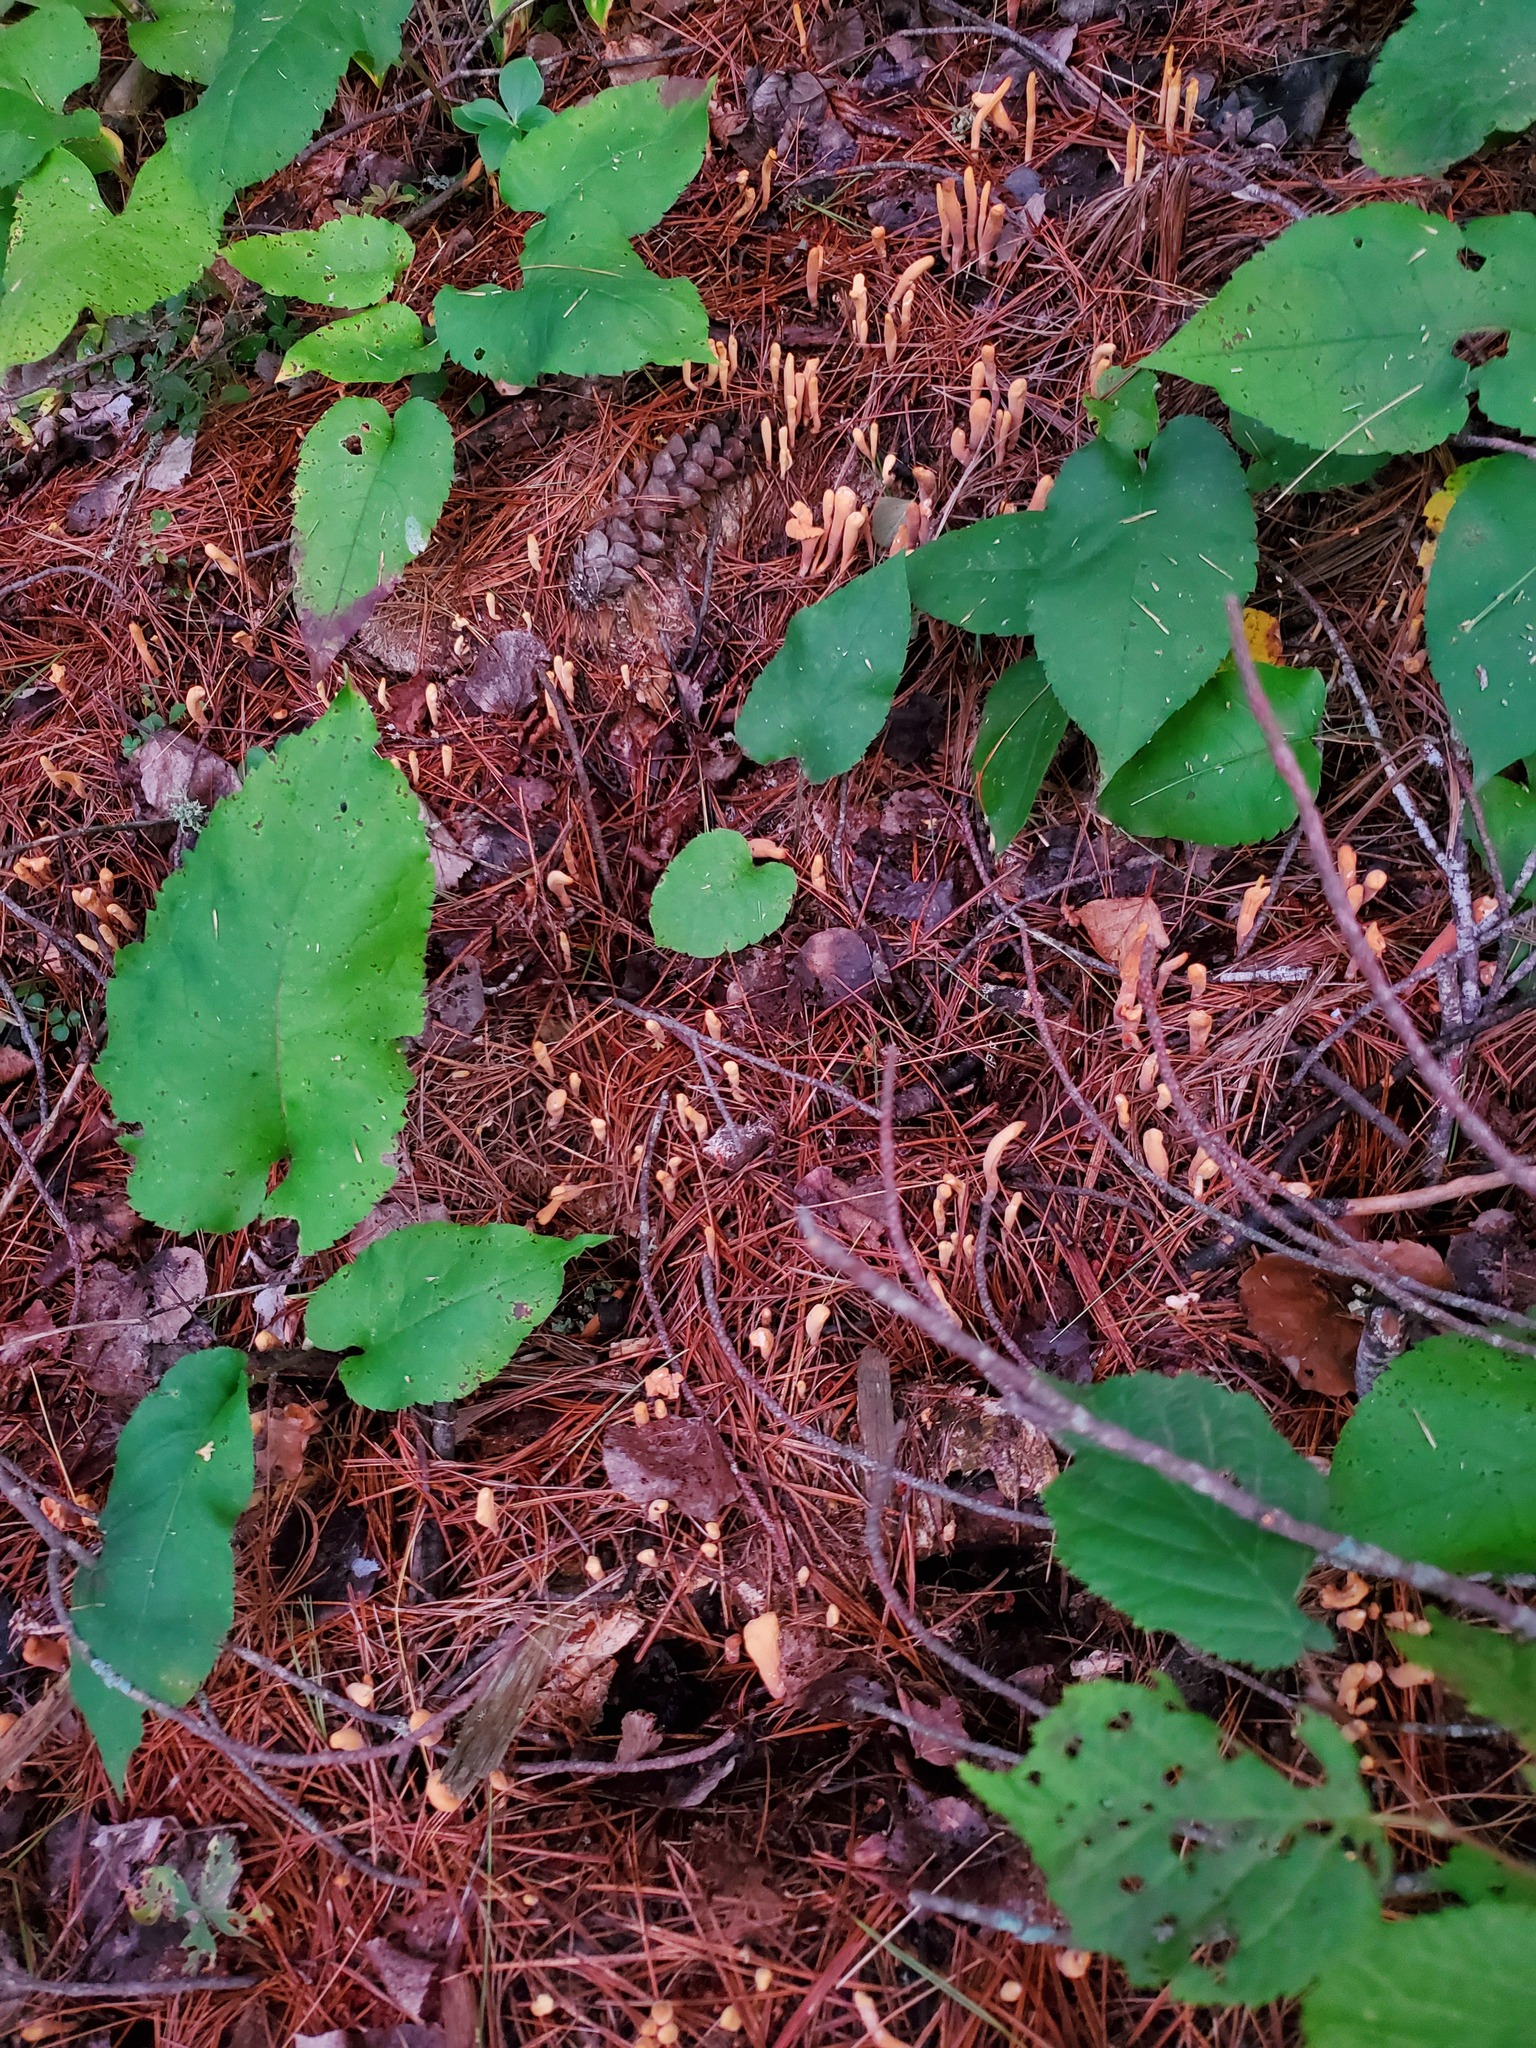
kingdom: Fungi
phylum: Basidiomycota
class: Agaricomycetes
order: Gomphales
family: Clavariadelphaceae
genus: Clavariadelphus
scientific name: Clavariadelphus ligula
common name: Ochre club
